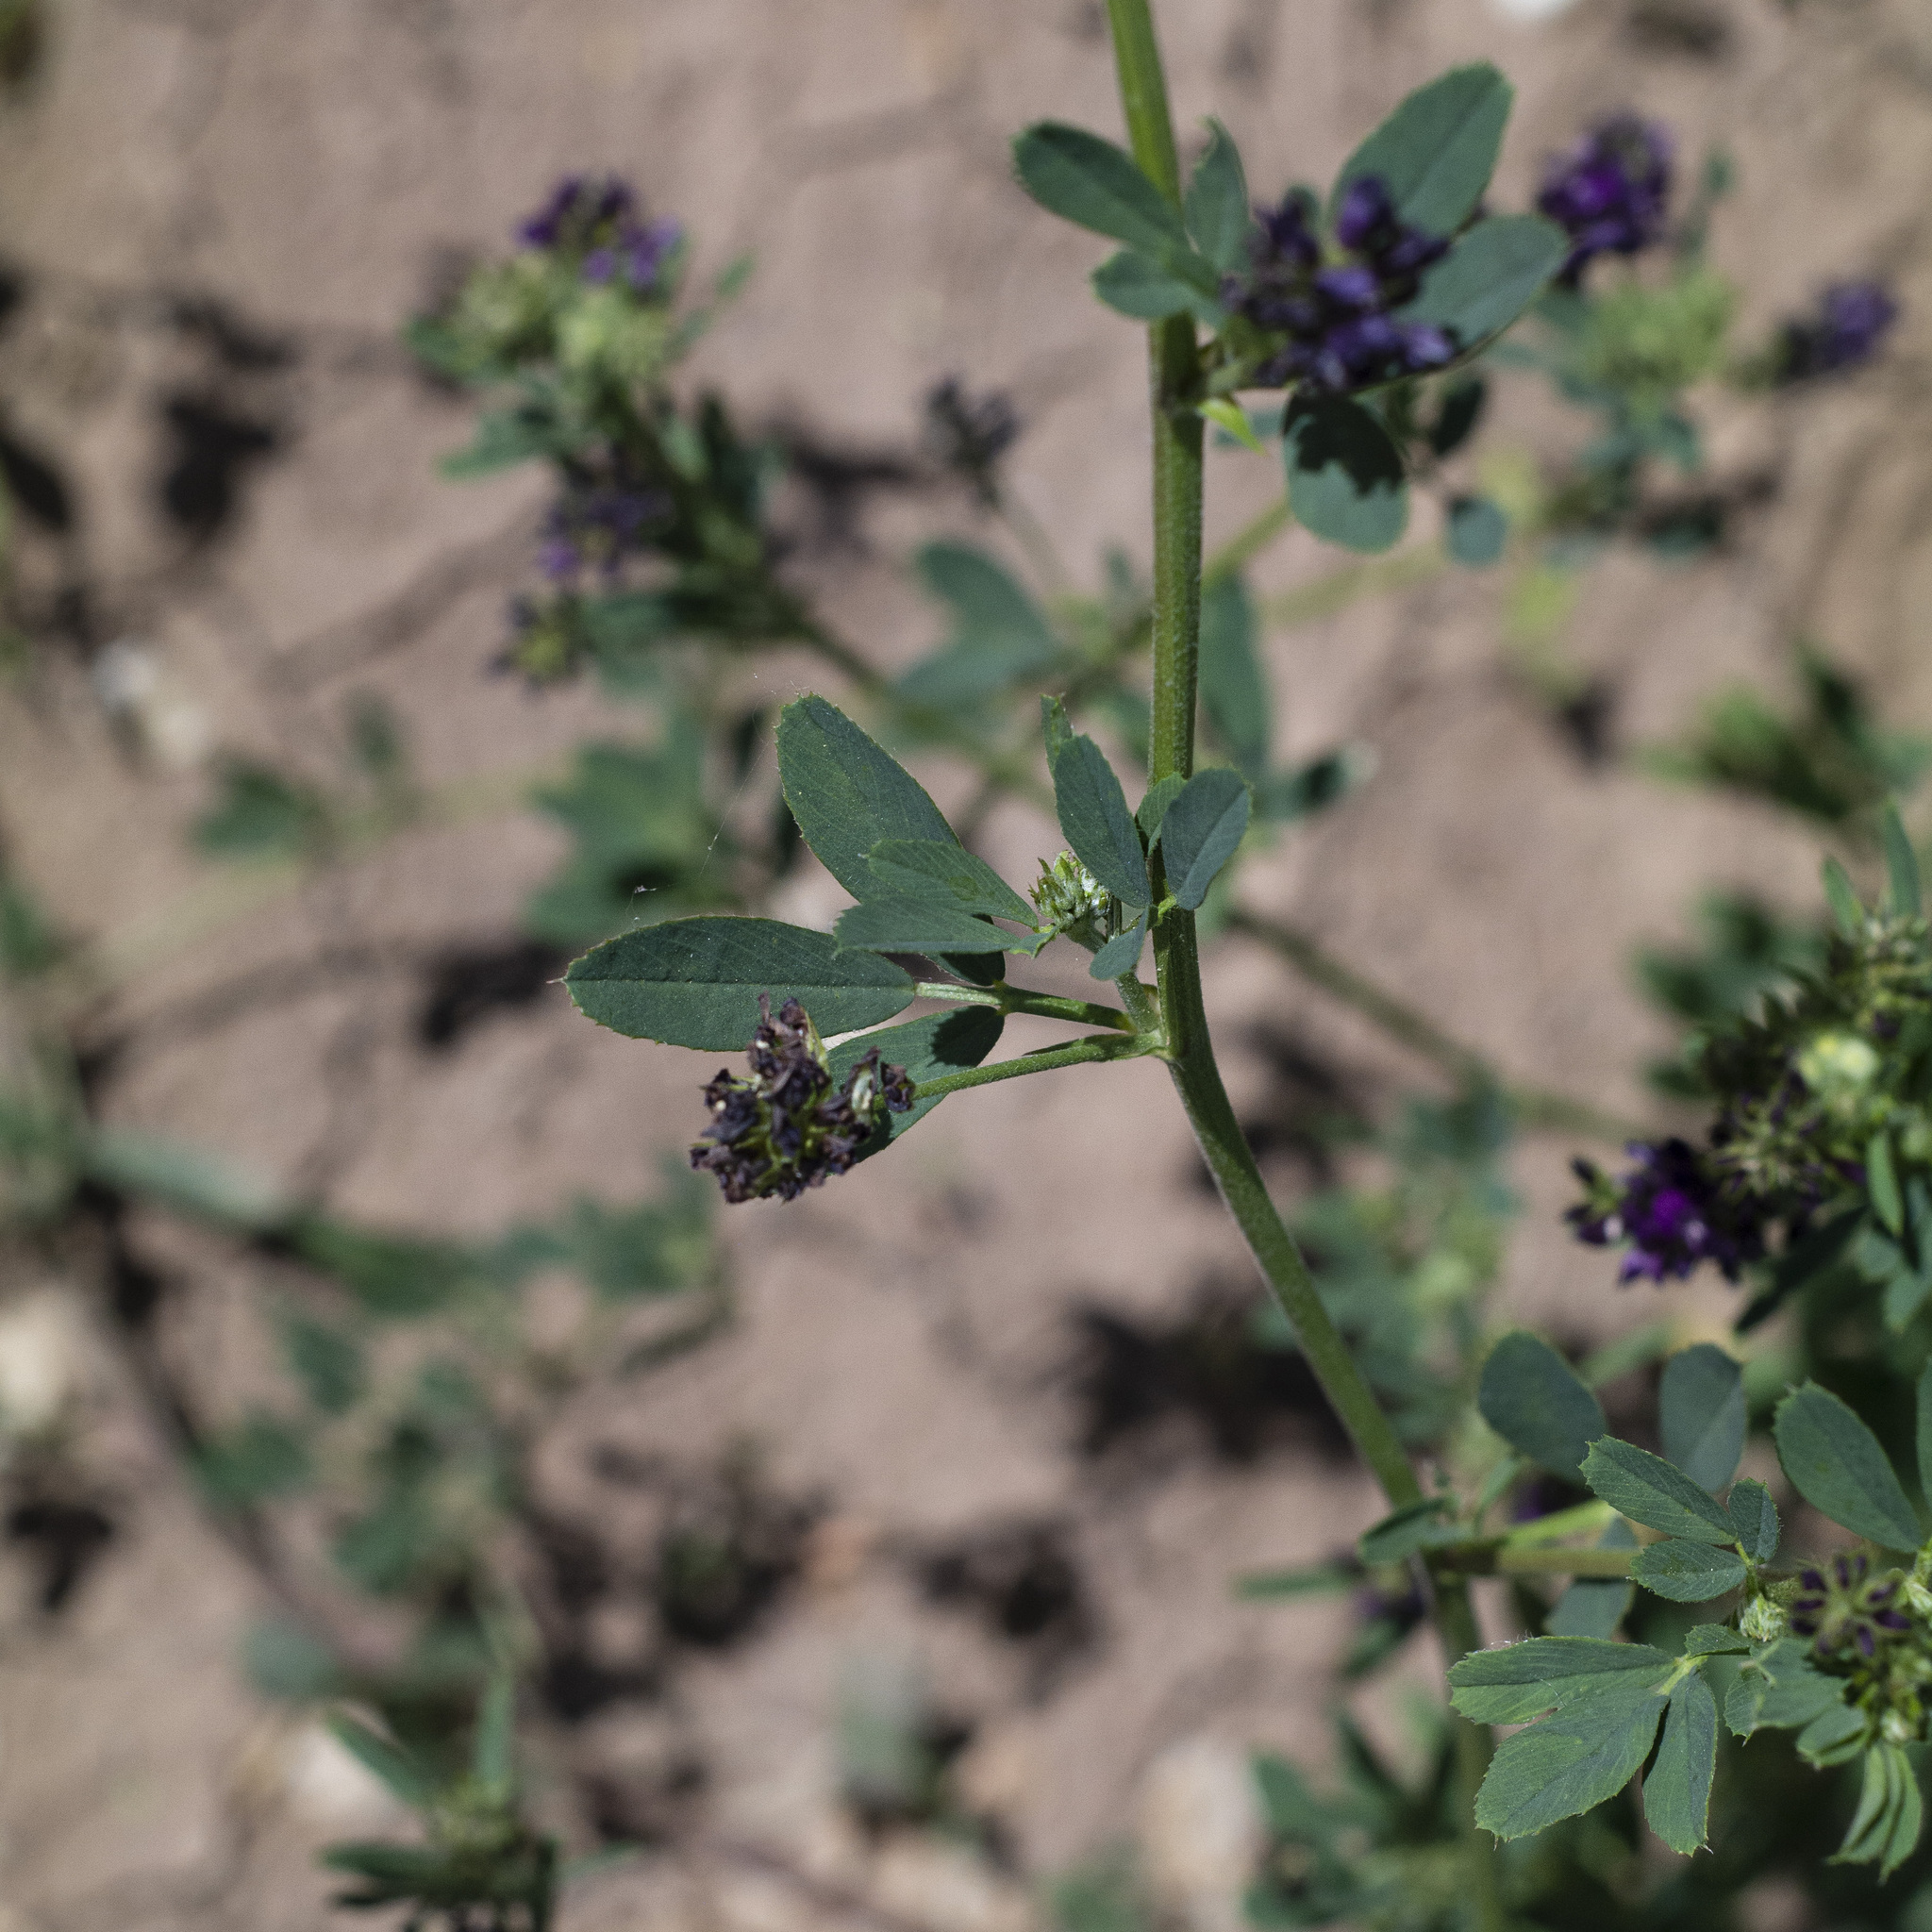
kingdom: Plantae
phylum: Tracheophyta
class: Magnoliopsida
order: Fabales
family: Fabaceae
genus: Medicago
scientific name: Medicago sativa
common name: Alfalfa
